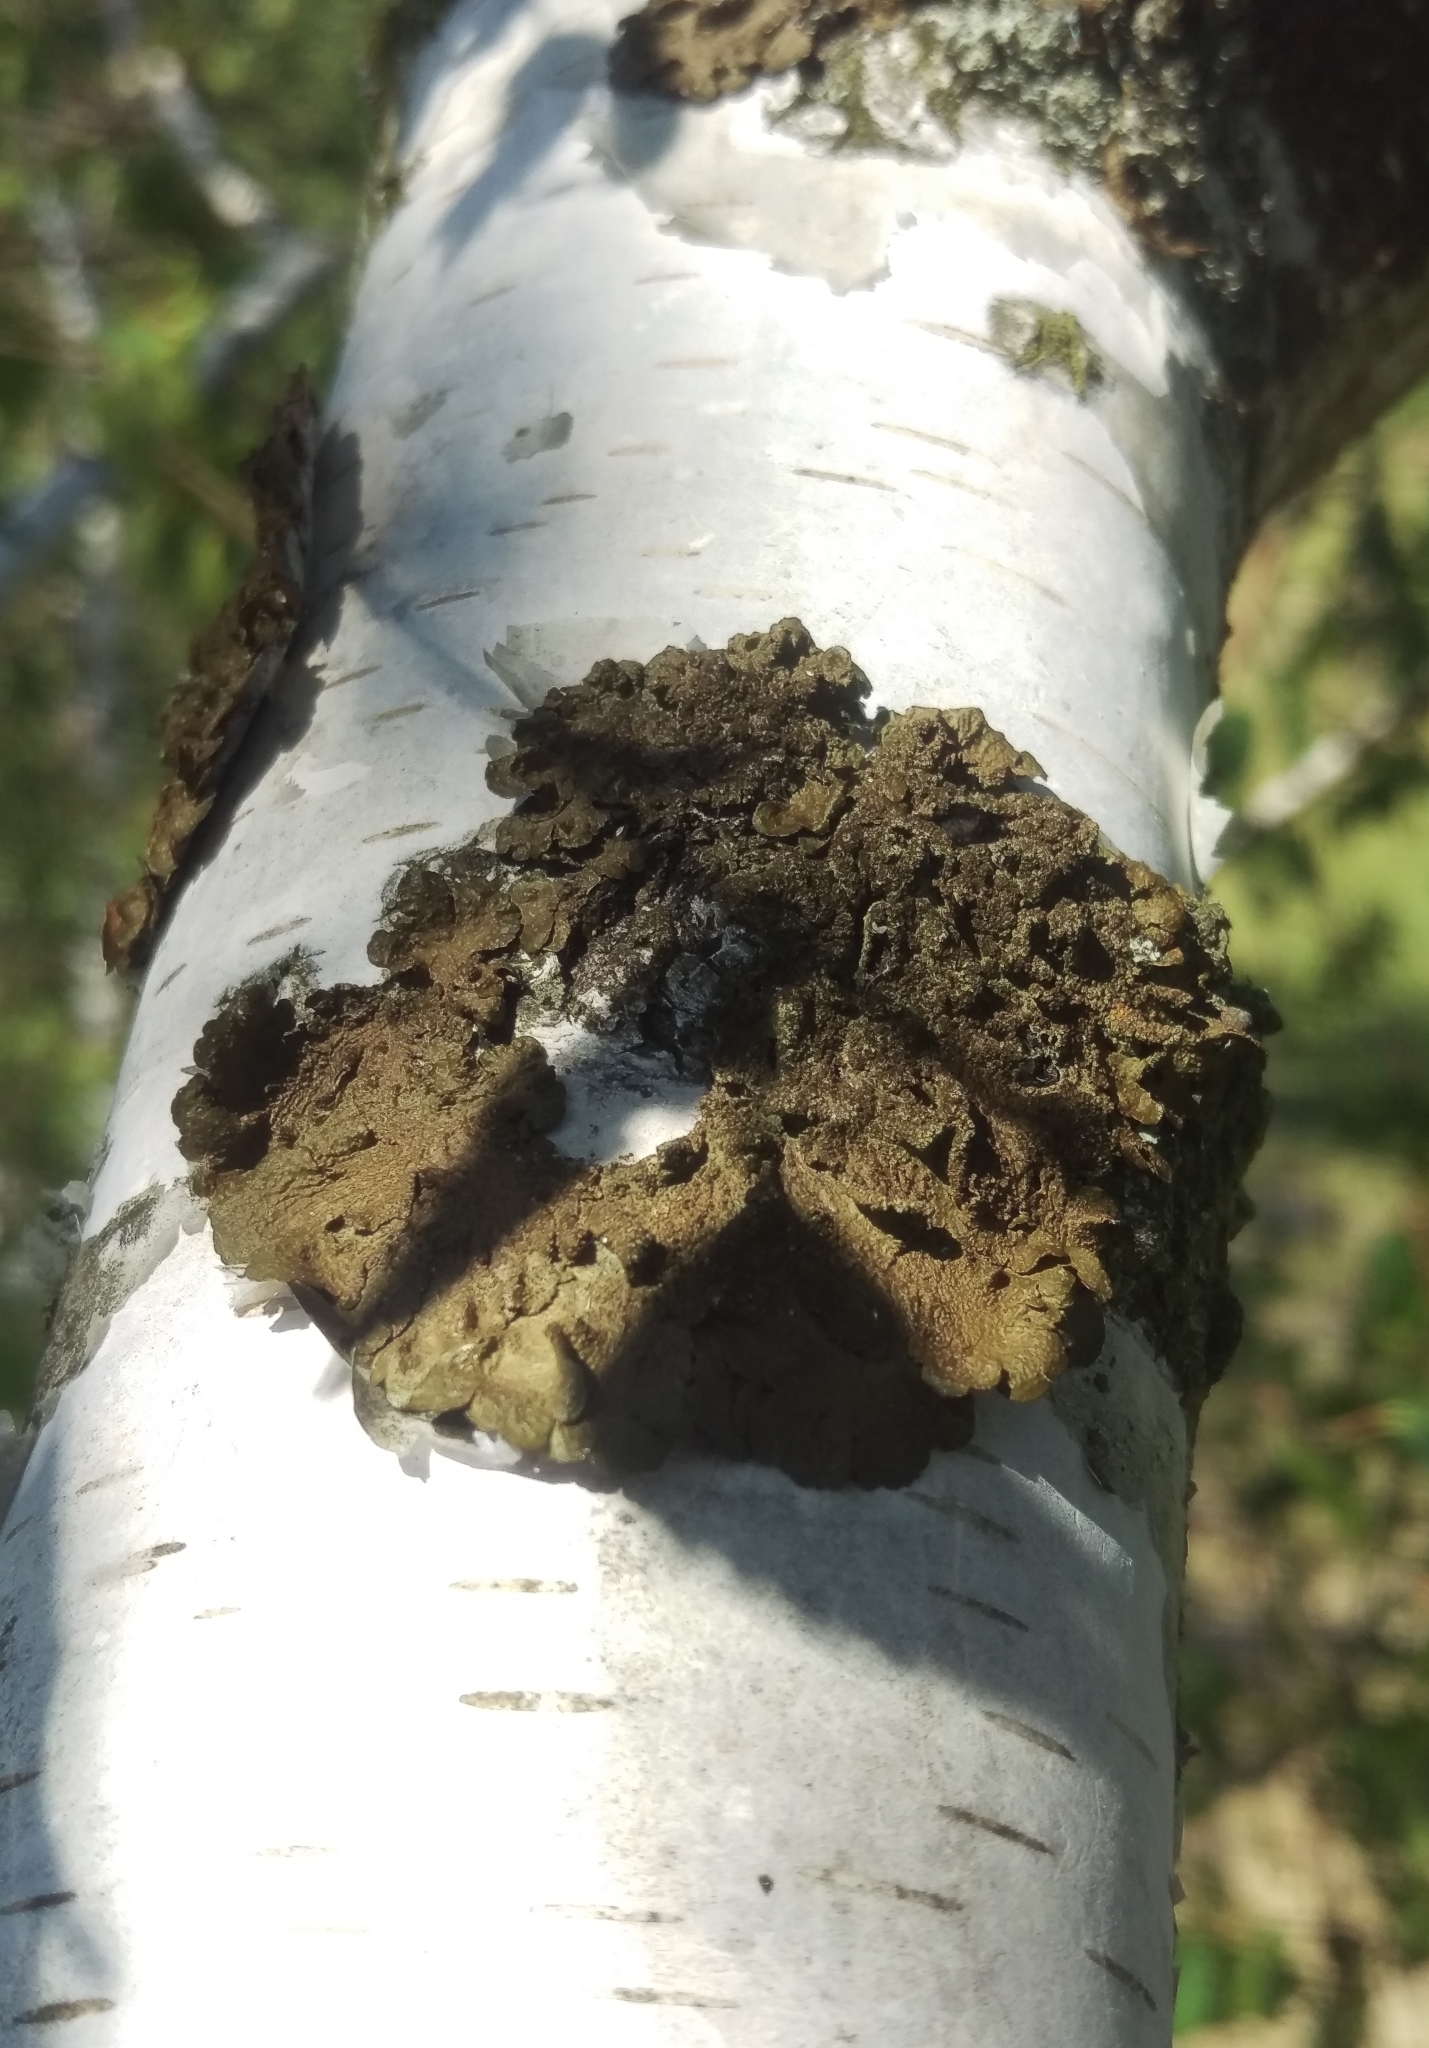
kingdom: Fungi
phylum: Ascomycota
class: Lecanoromycetes
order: Lecanorales
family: Parmeliaceae
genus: Melanelixia
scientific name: Melanelixia subaurifera
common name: Abraded camouflage lichen
